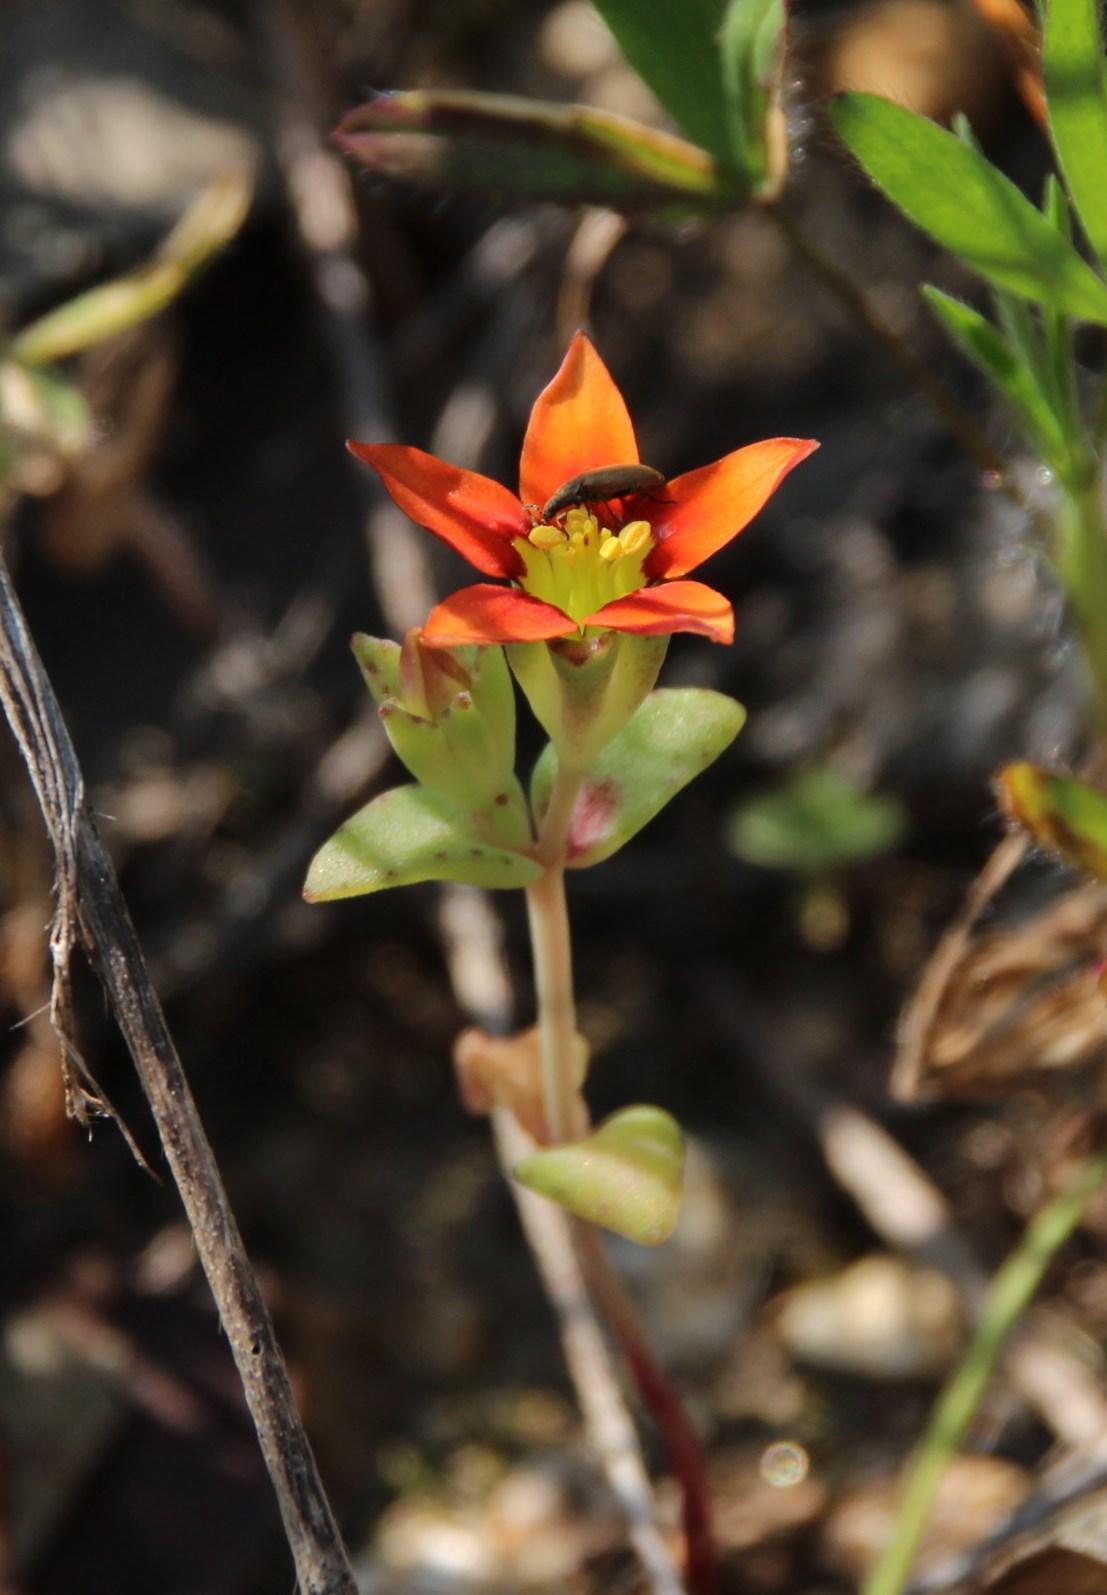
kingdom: Plantae
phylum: Tracheophyta
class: Magnoliopsida
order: Saxifragales
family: Crassulaceae
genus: Crassula
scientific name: Crassula dichotoma
